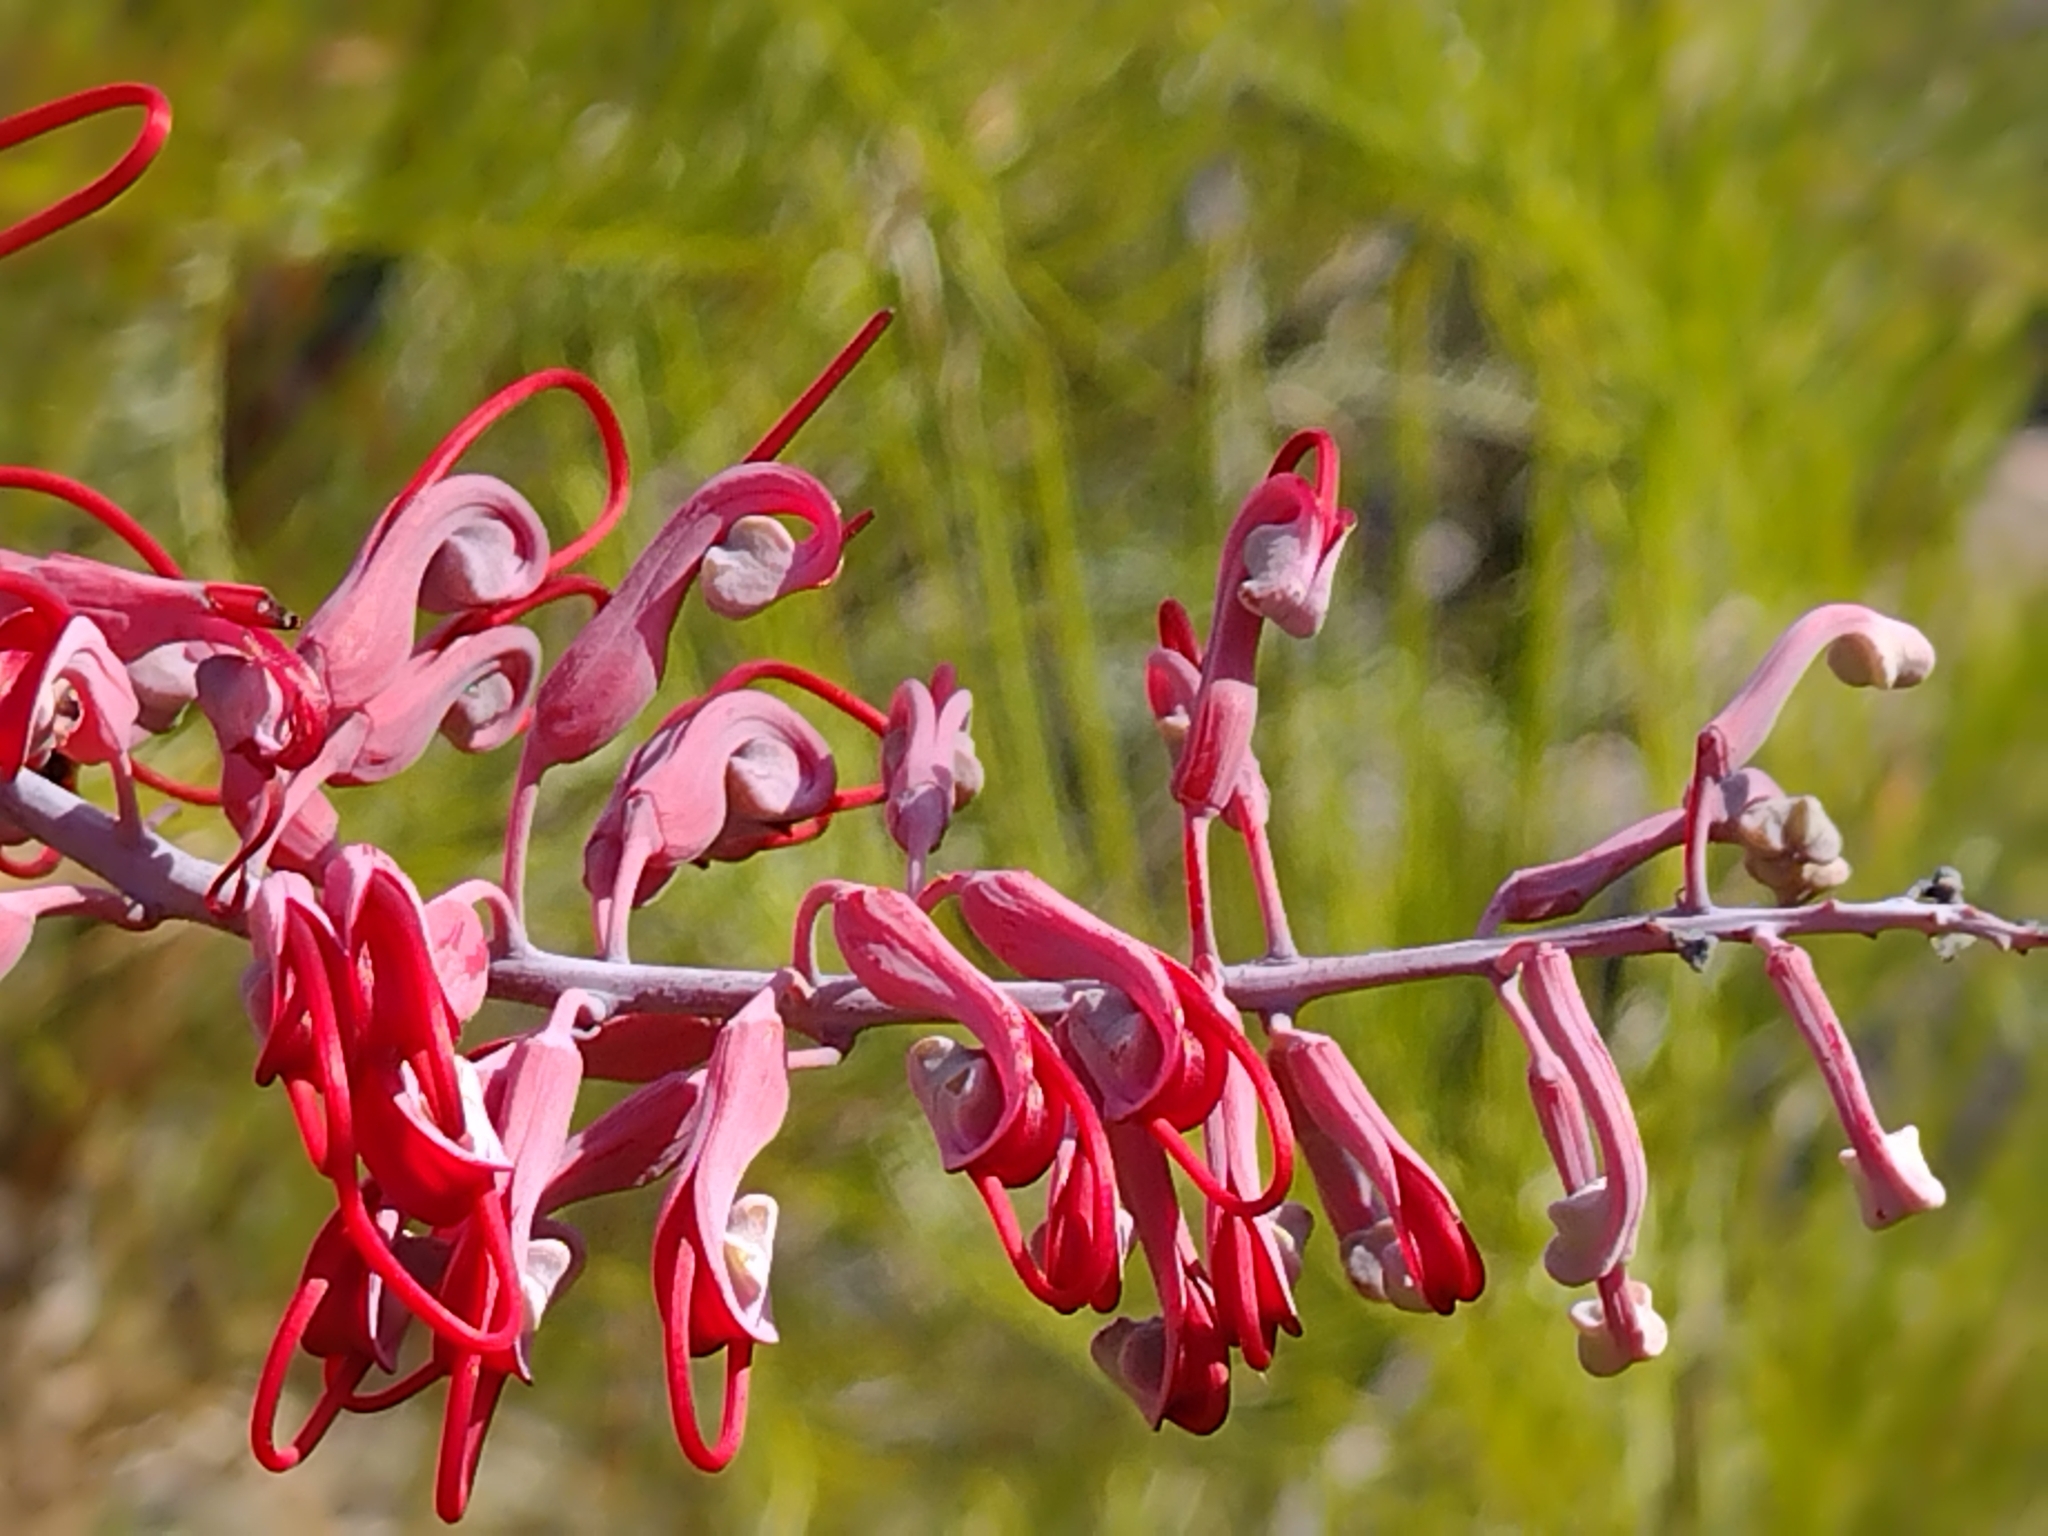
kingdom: Plantae
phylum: Tracheophyta
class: Magnoliopsida
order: Proteales
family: Proteaceae
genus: Grevillea
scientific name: Grevillea dryandri
